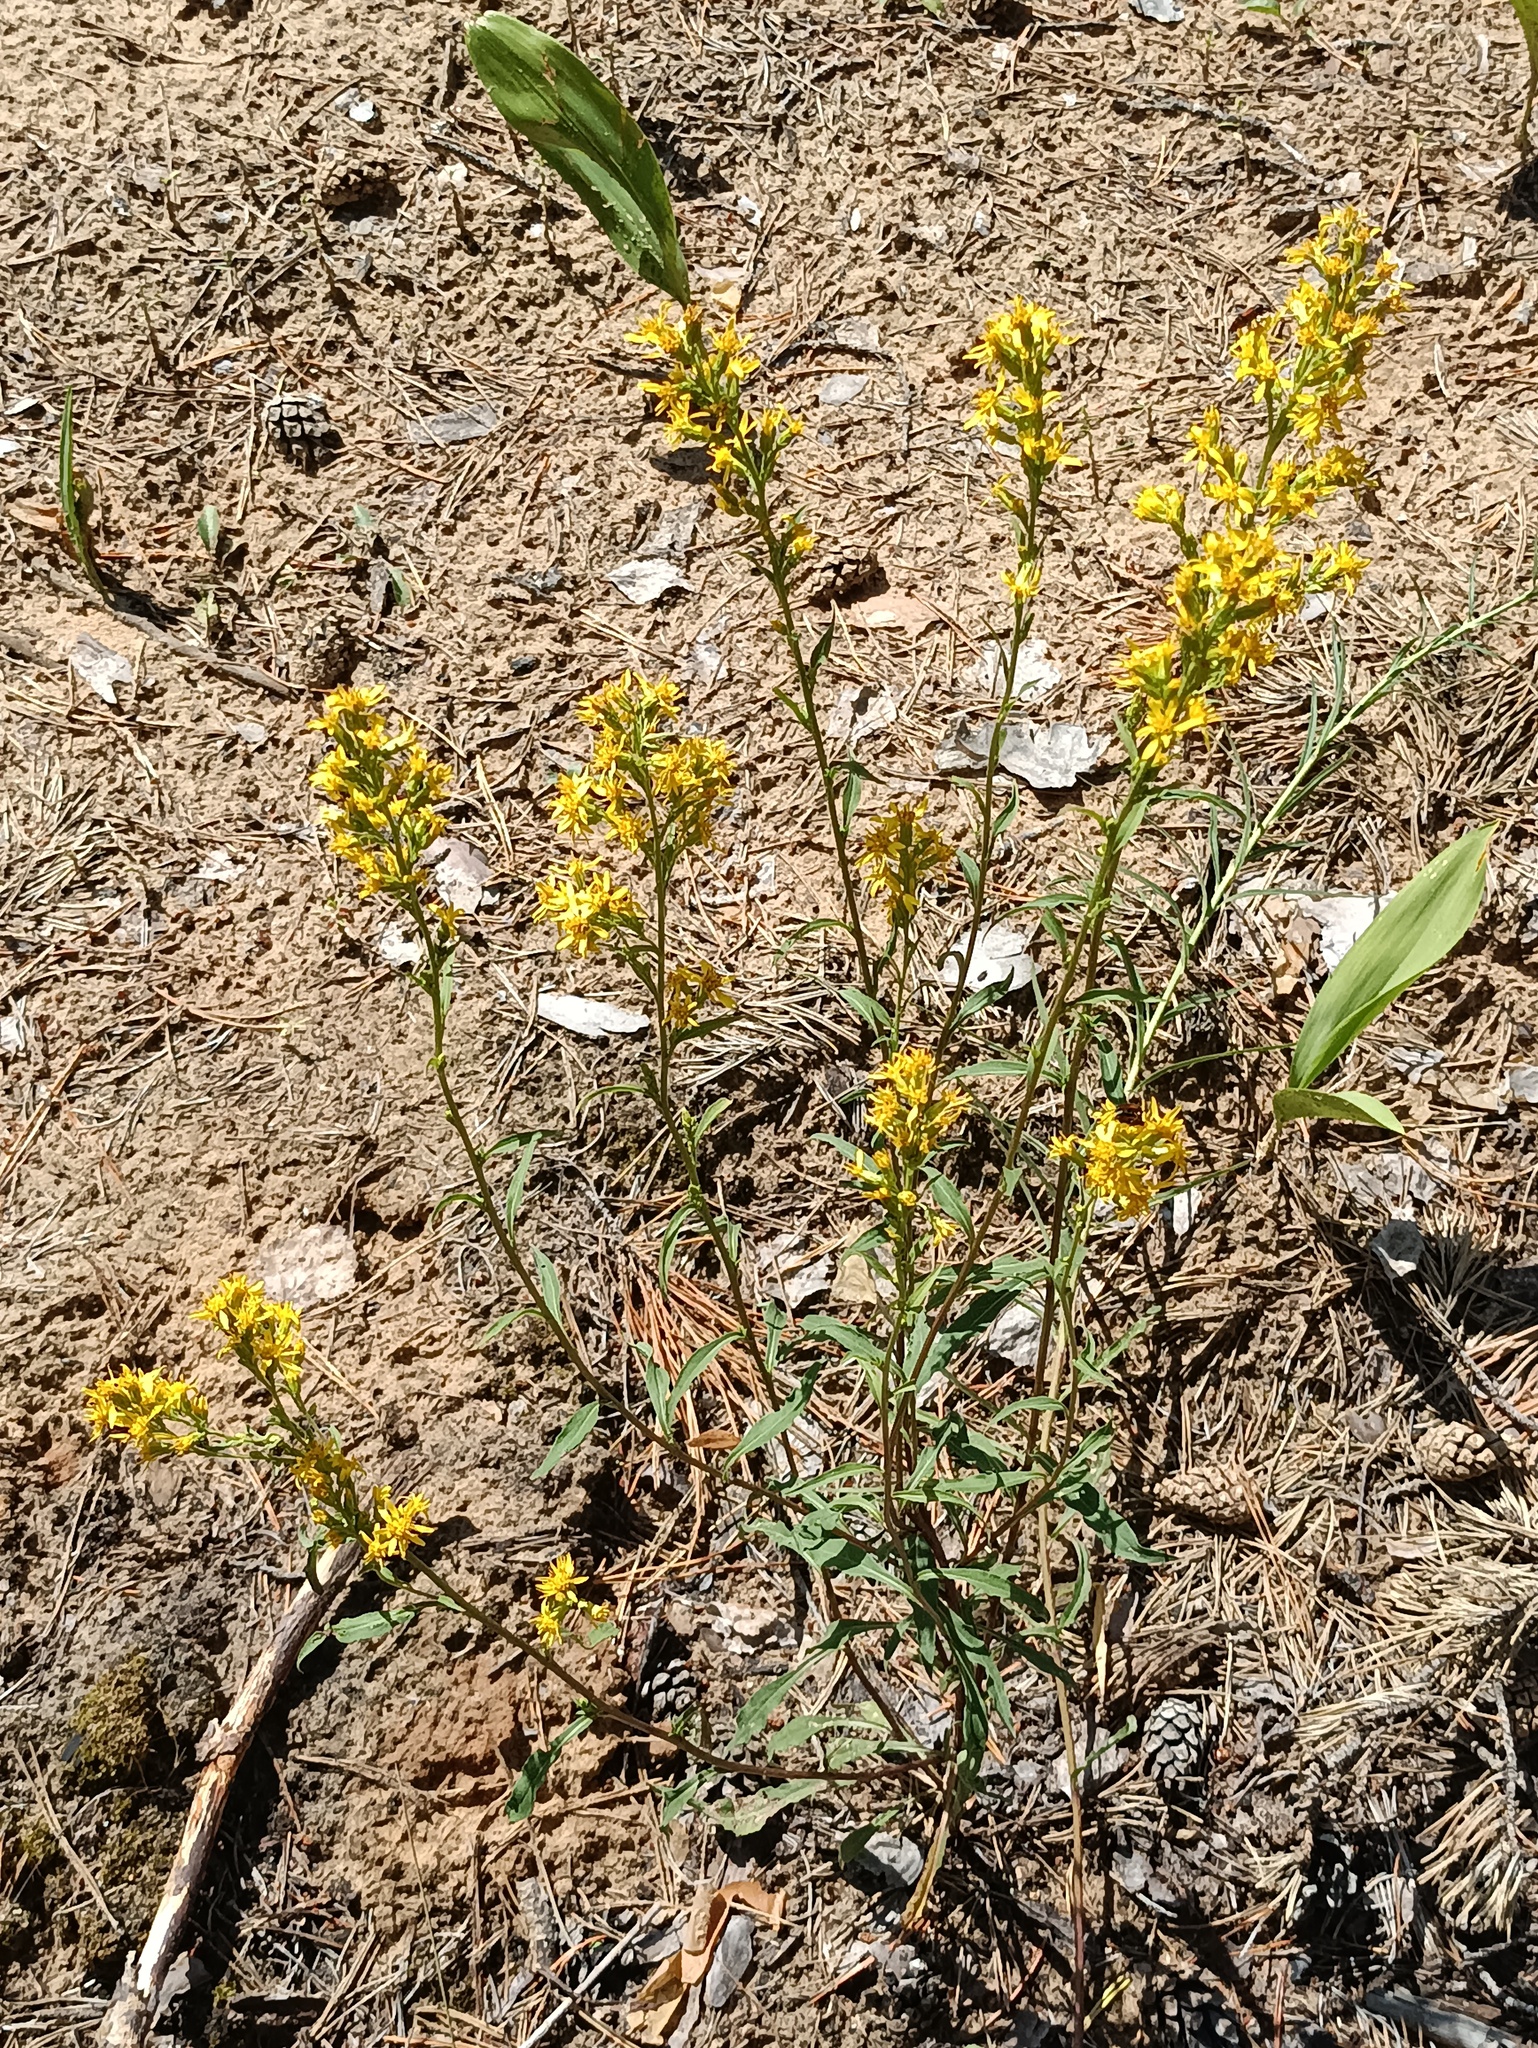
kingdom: Plantae
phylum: Tracheophyta
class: Magnoliopsida
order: Asterales
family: Asteraceae
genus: Solidago
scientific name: Solidago virgaurea
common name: Goldenrod
